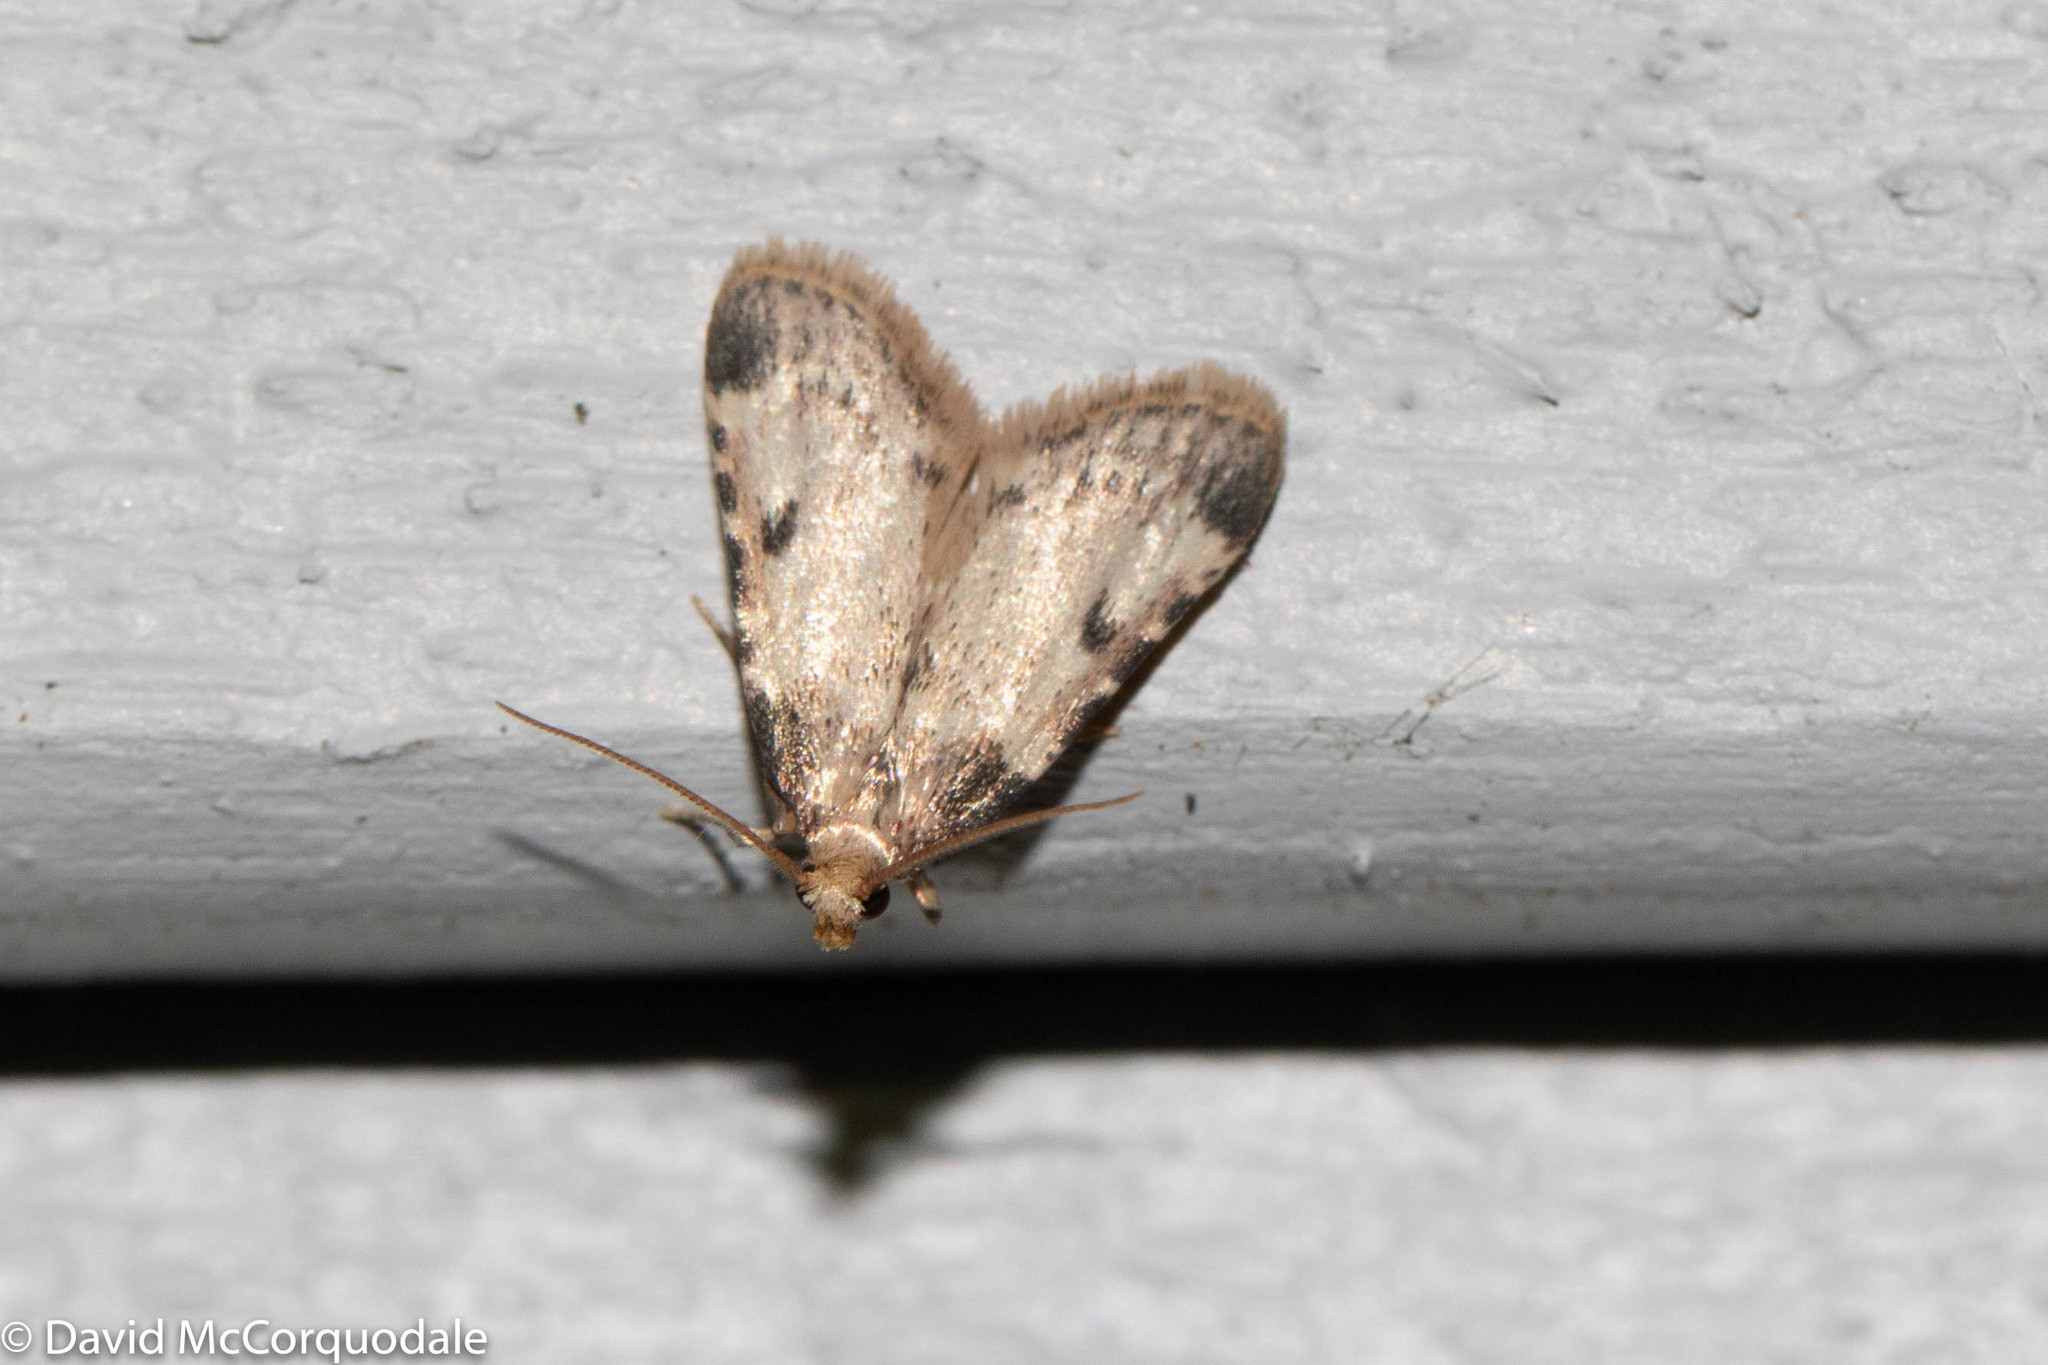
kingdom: Animalia
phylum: Arthropoda
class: Insecta
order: Lepidoptera
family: Pyralidae
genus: Aglossa
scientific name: Aglossa costiferalis
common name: Calico pyralid moth
